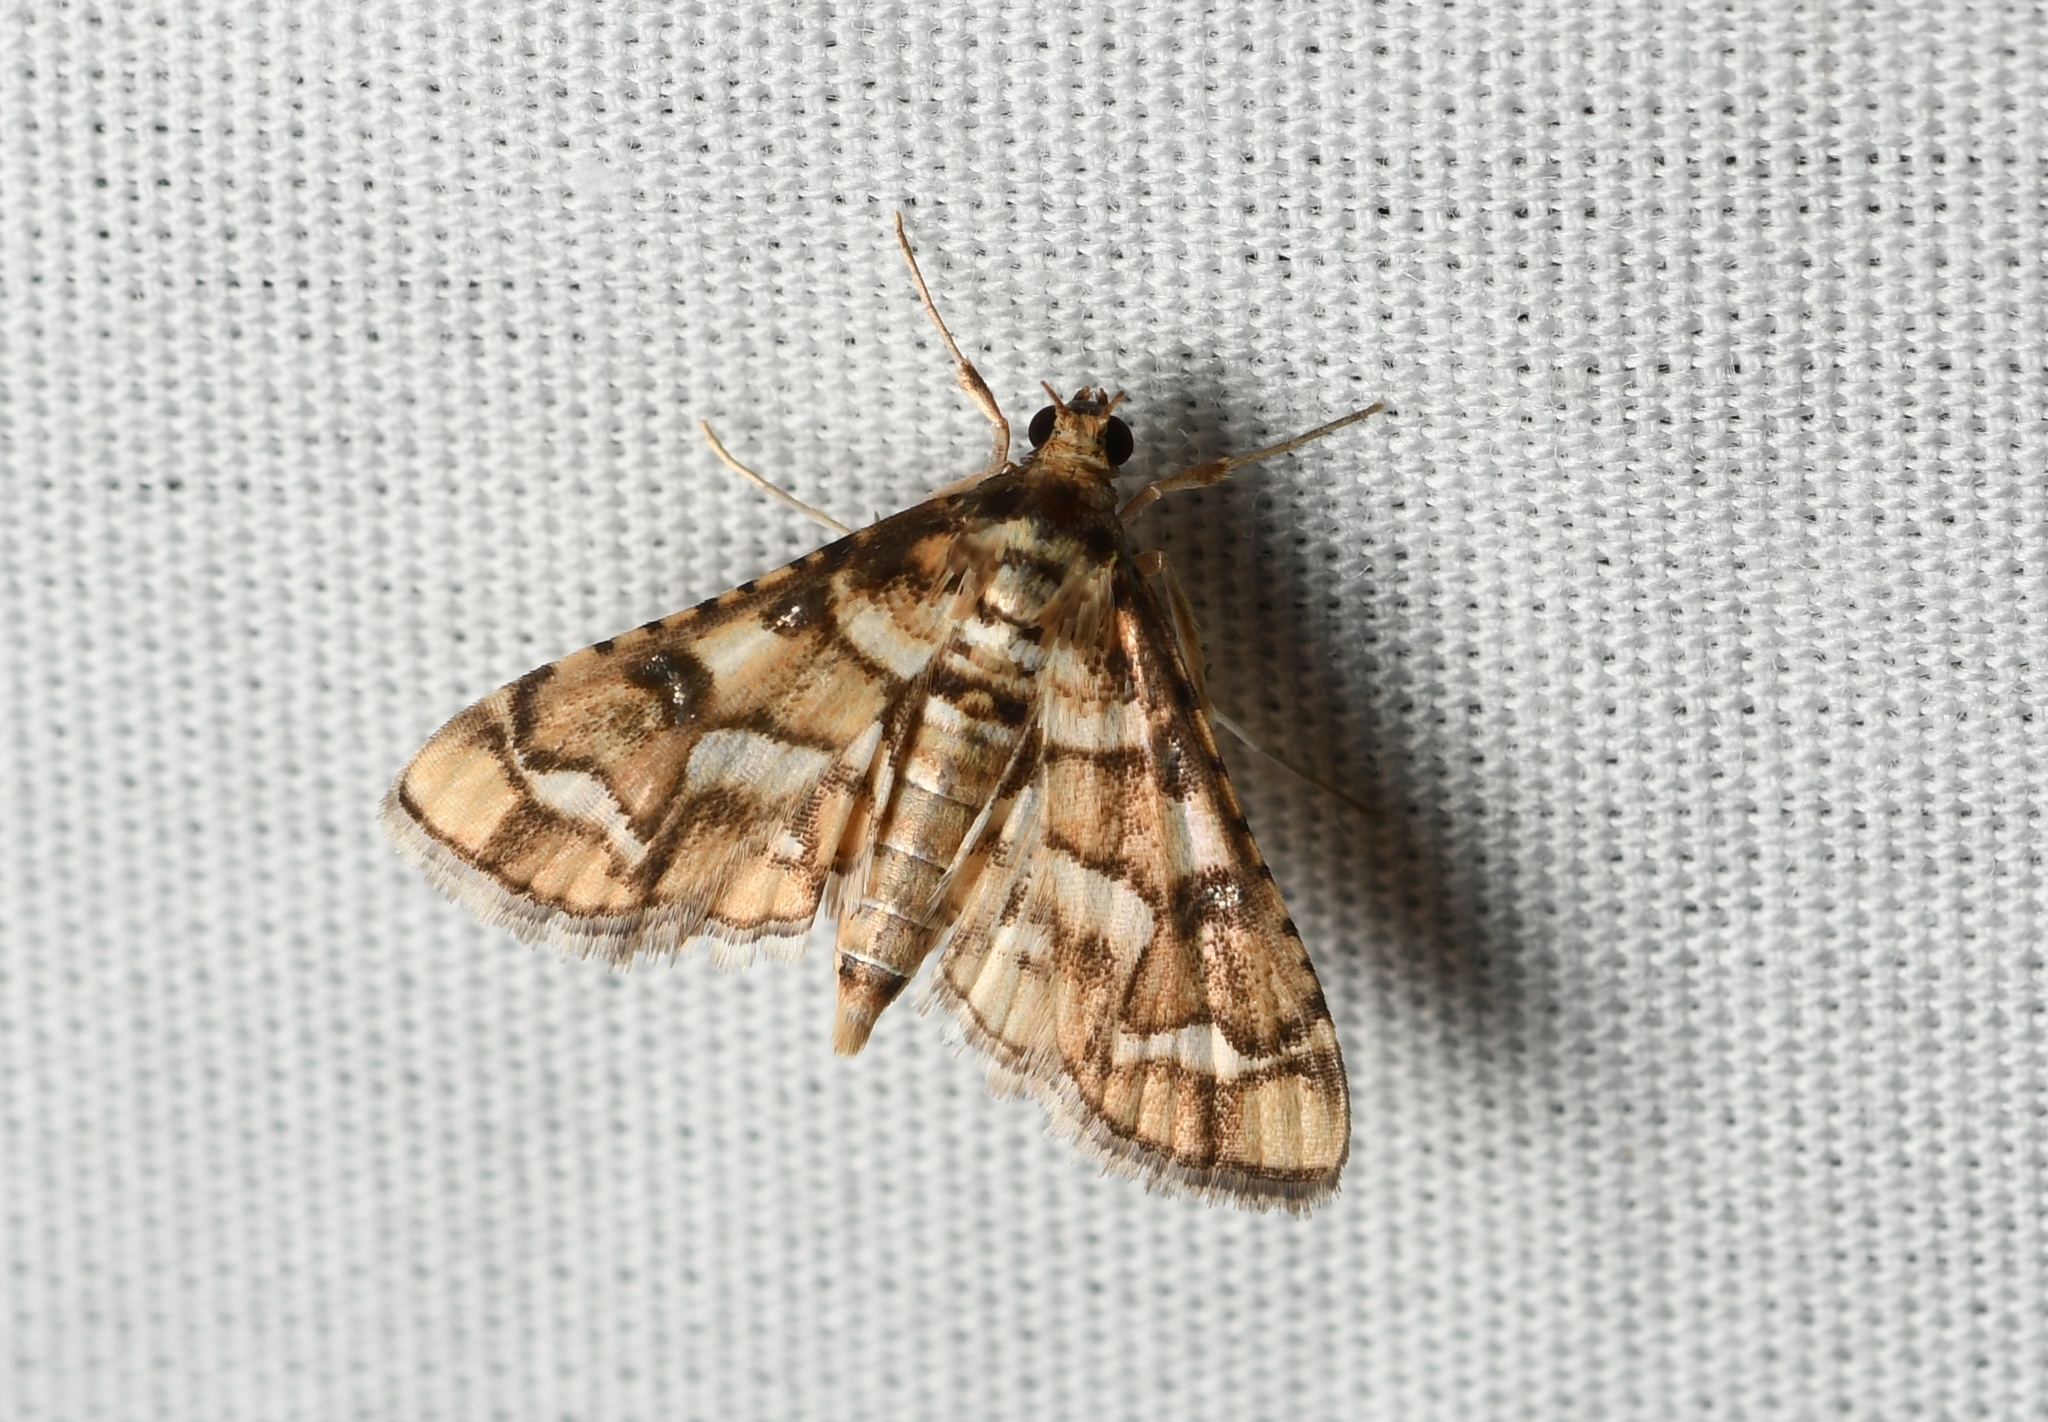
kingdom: Animalia
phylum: Arthropoda
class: Insecta
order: Lepidoptera
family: Crambidae
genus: Hileithia
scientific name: Hileithia magualis
